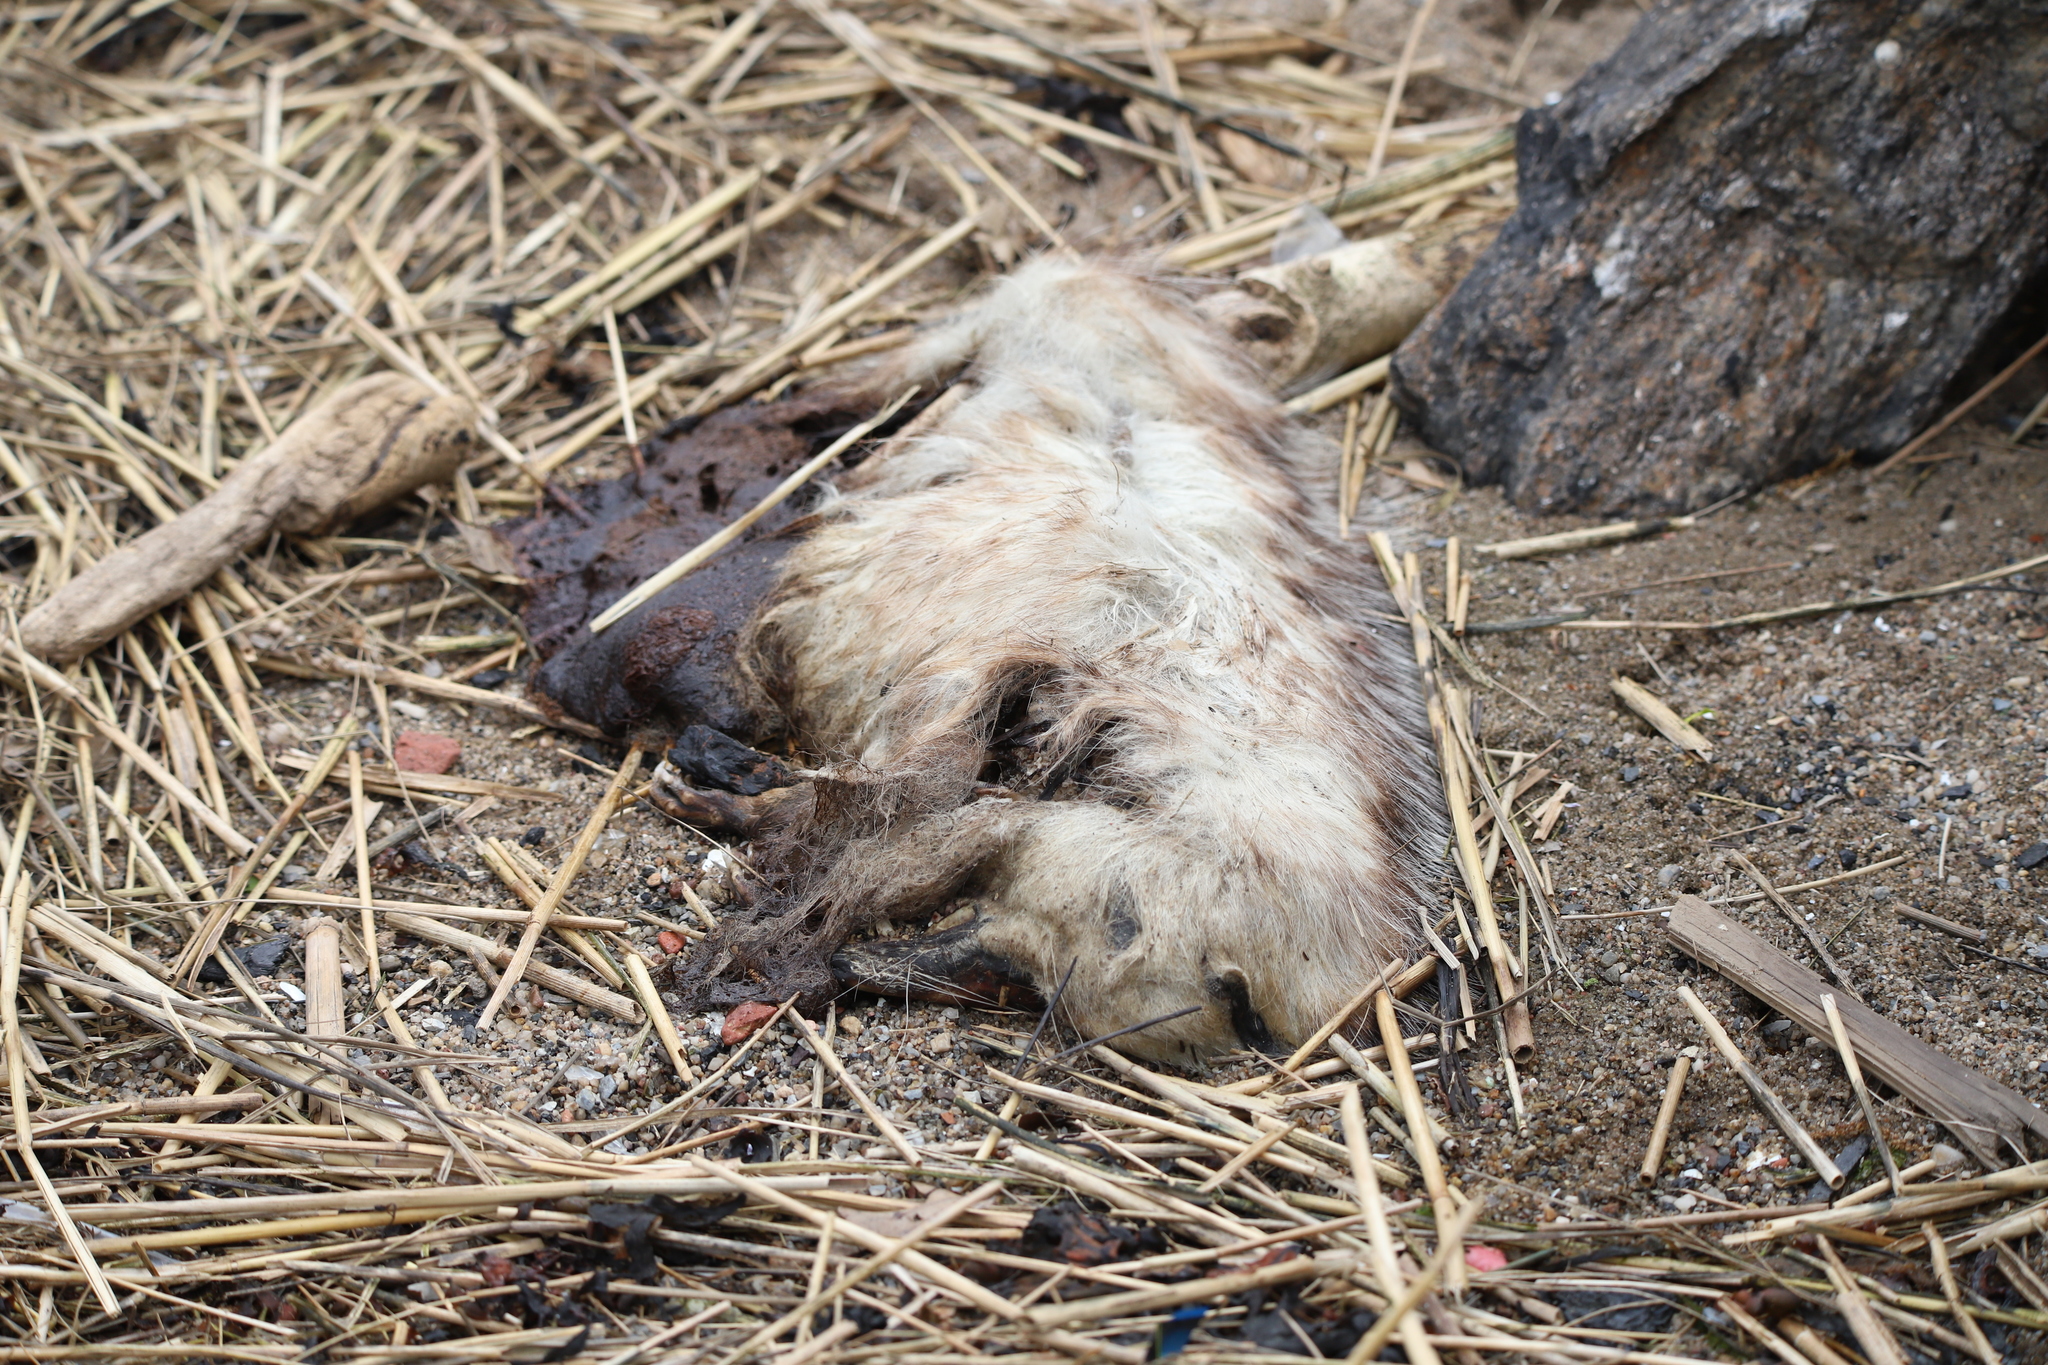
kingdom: Animalia
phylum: Chordata
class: Mammalia
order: Didelphimorphia
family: Didelphidae
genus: Didelphis
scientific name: Didelphis virginiana
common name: Virginia opossum
